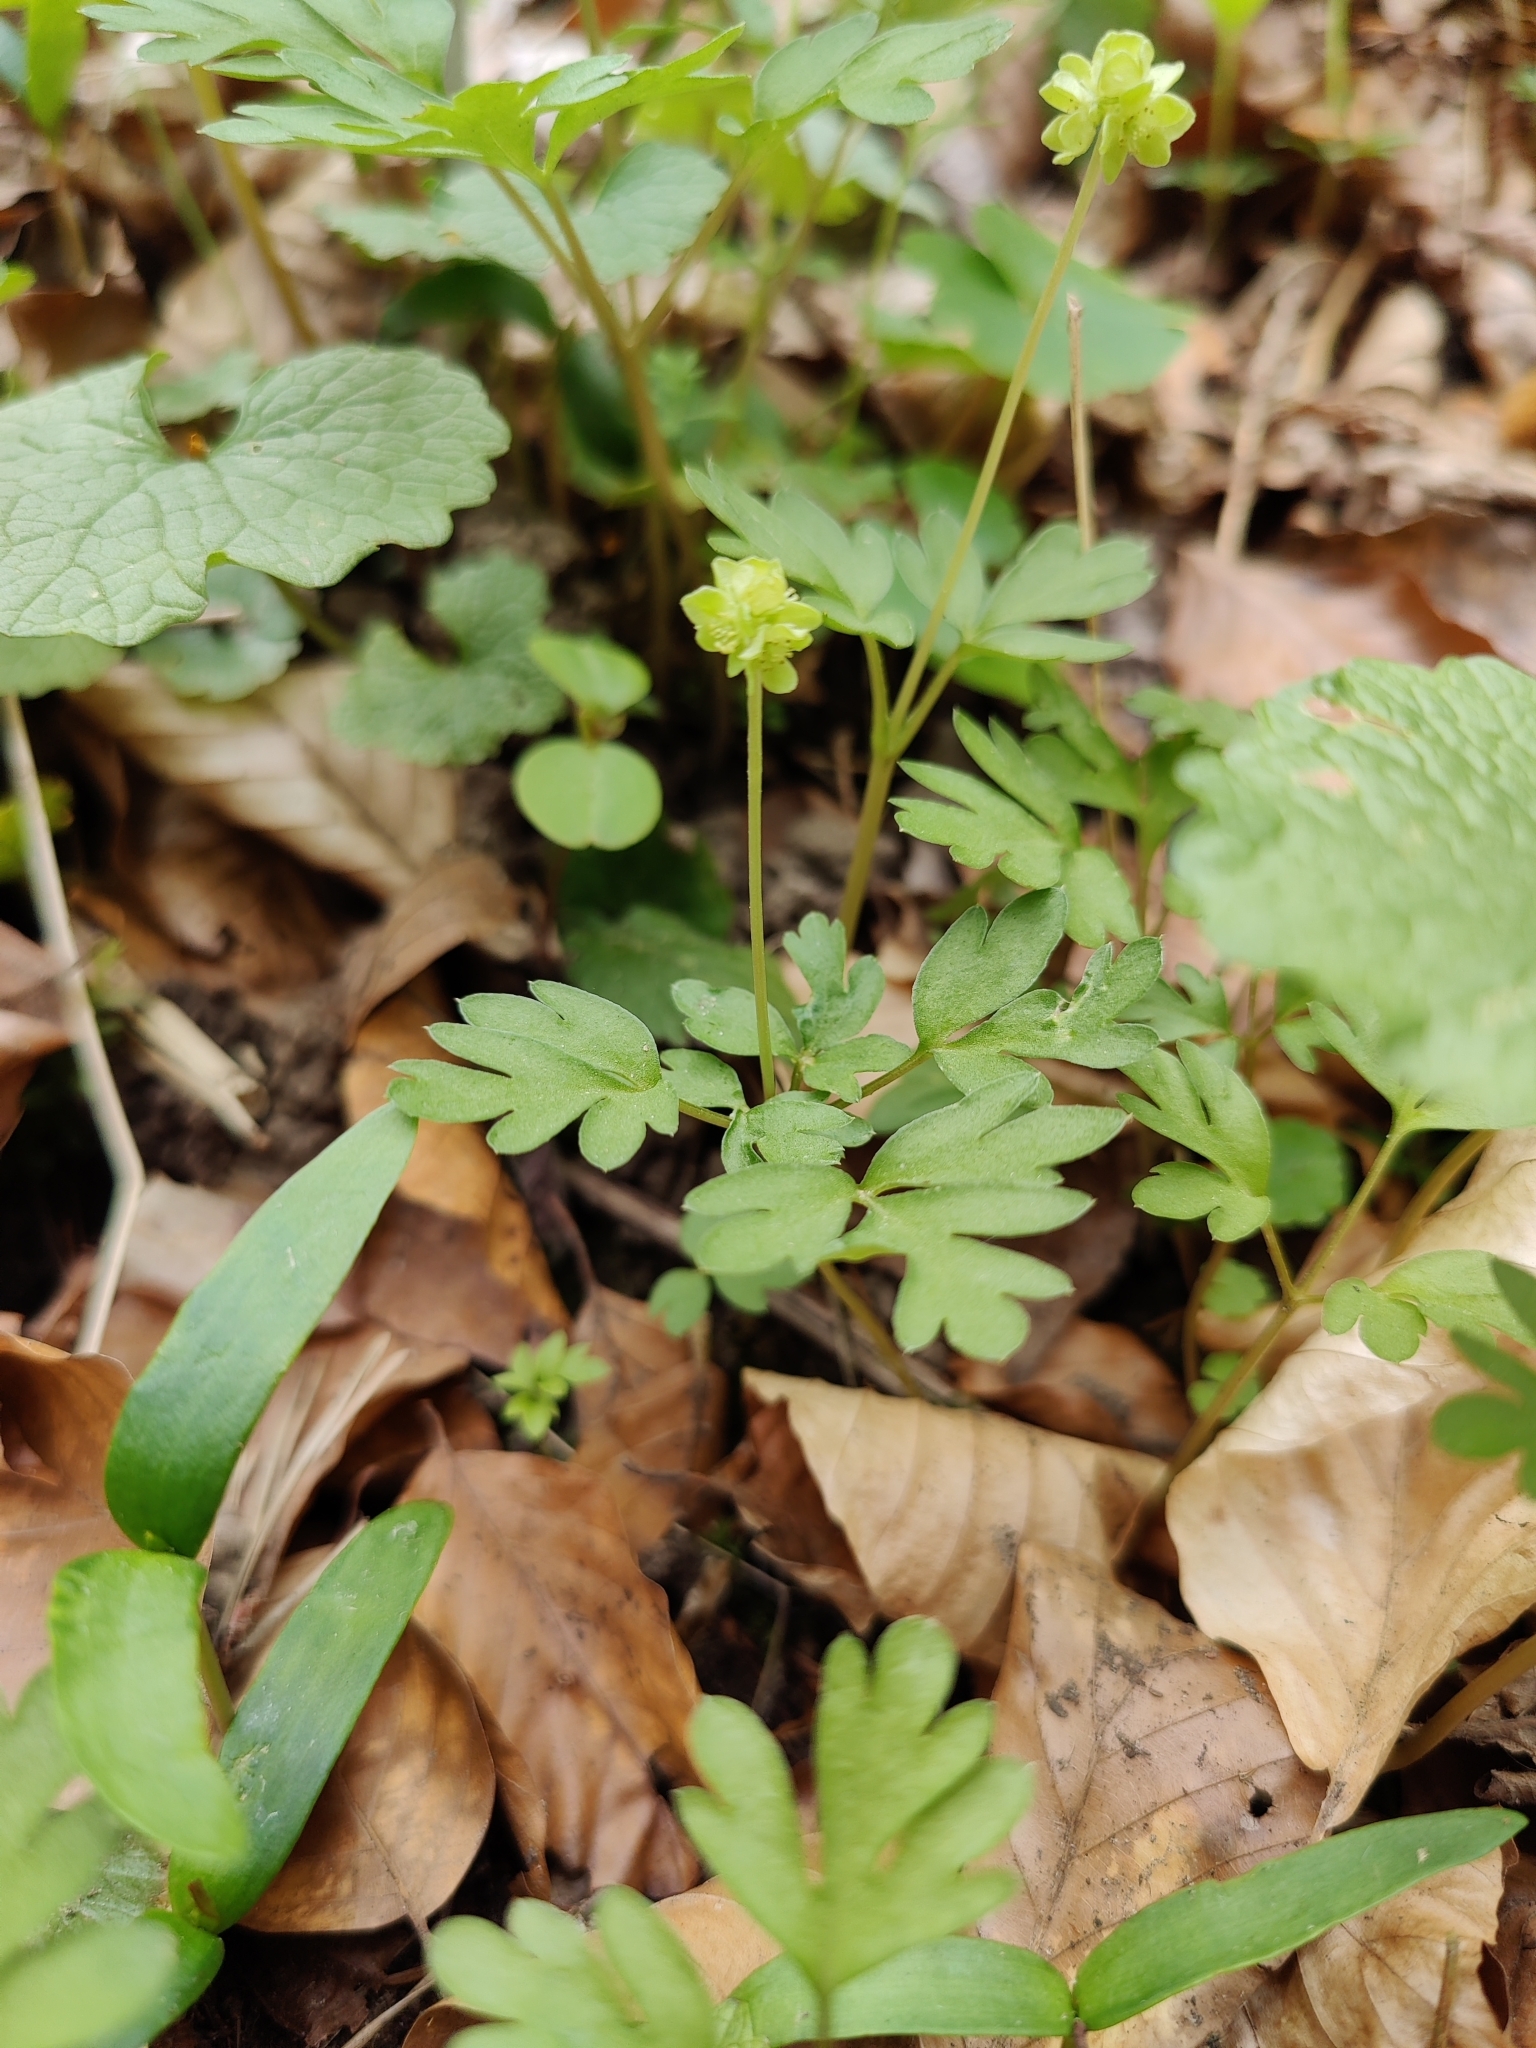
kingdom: Plantae
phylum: Tracheophyta
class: Magnoliopsida
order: Dipsacales
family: Viburnaceae
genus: Adoxa
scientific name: Adoxa moschatellina
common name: Moschatel
